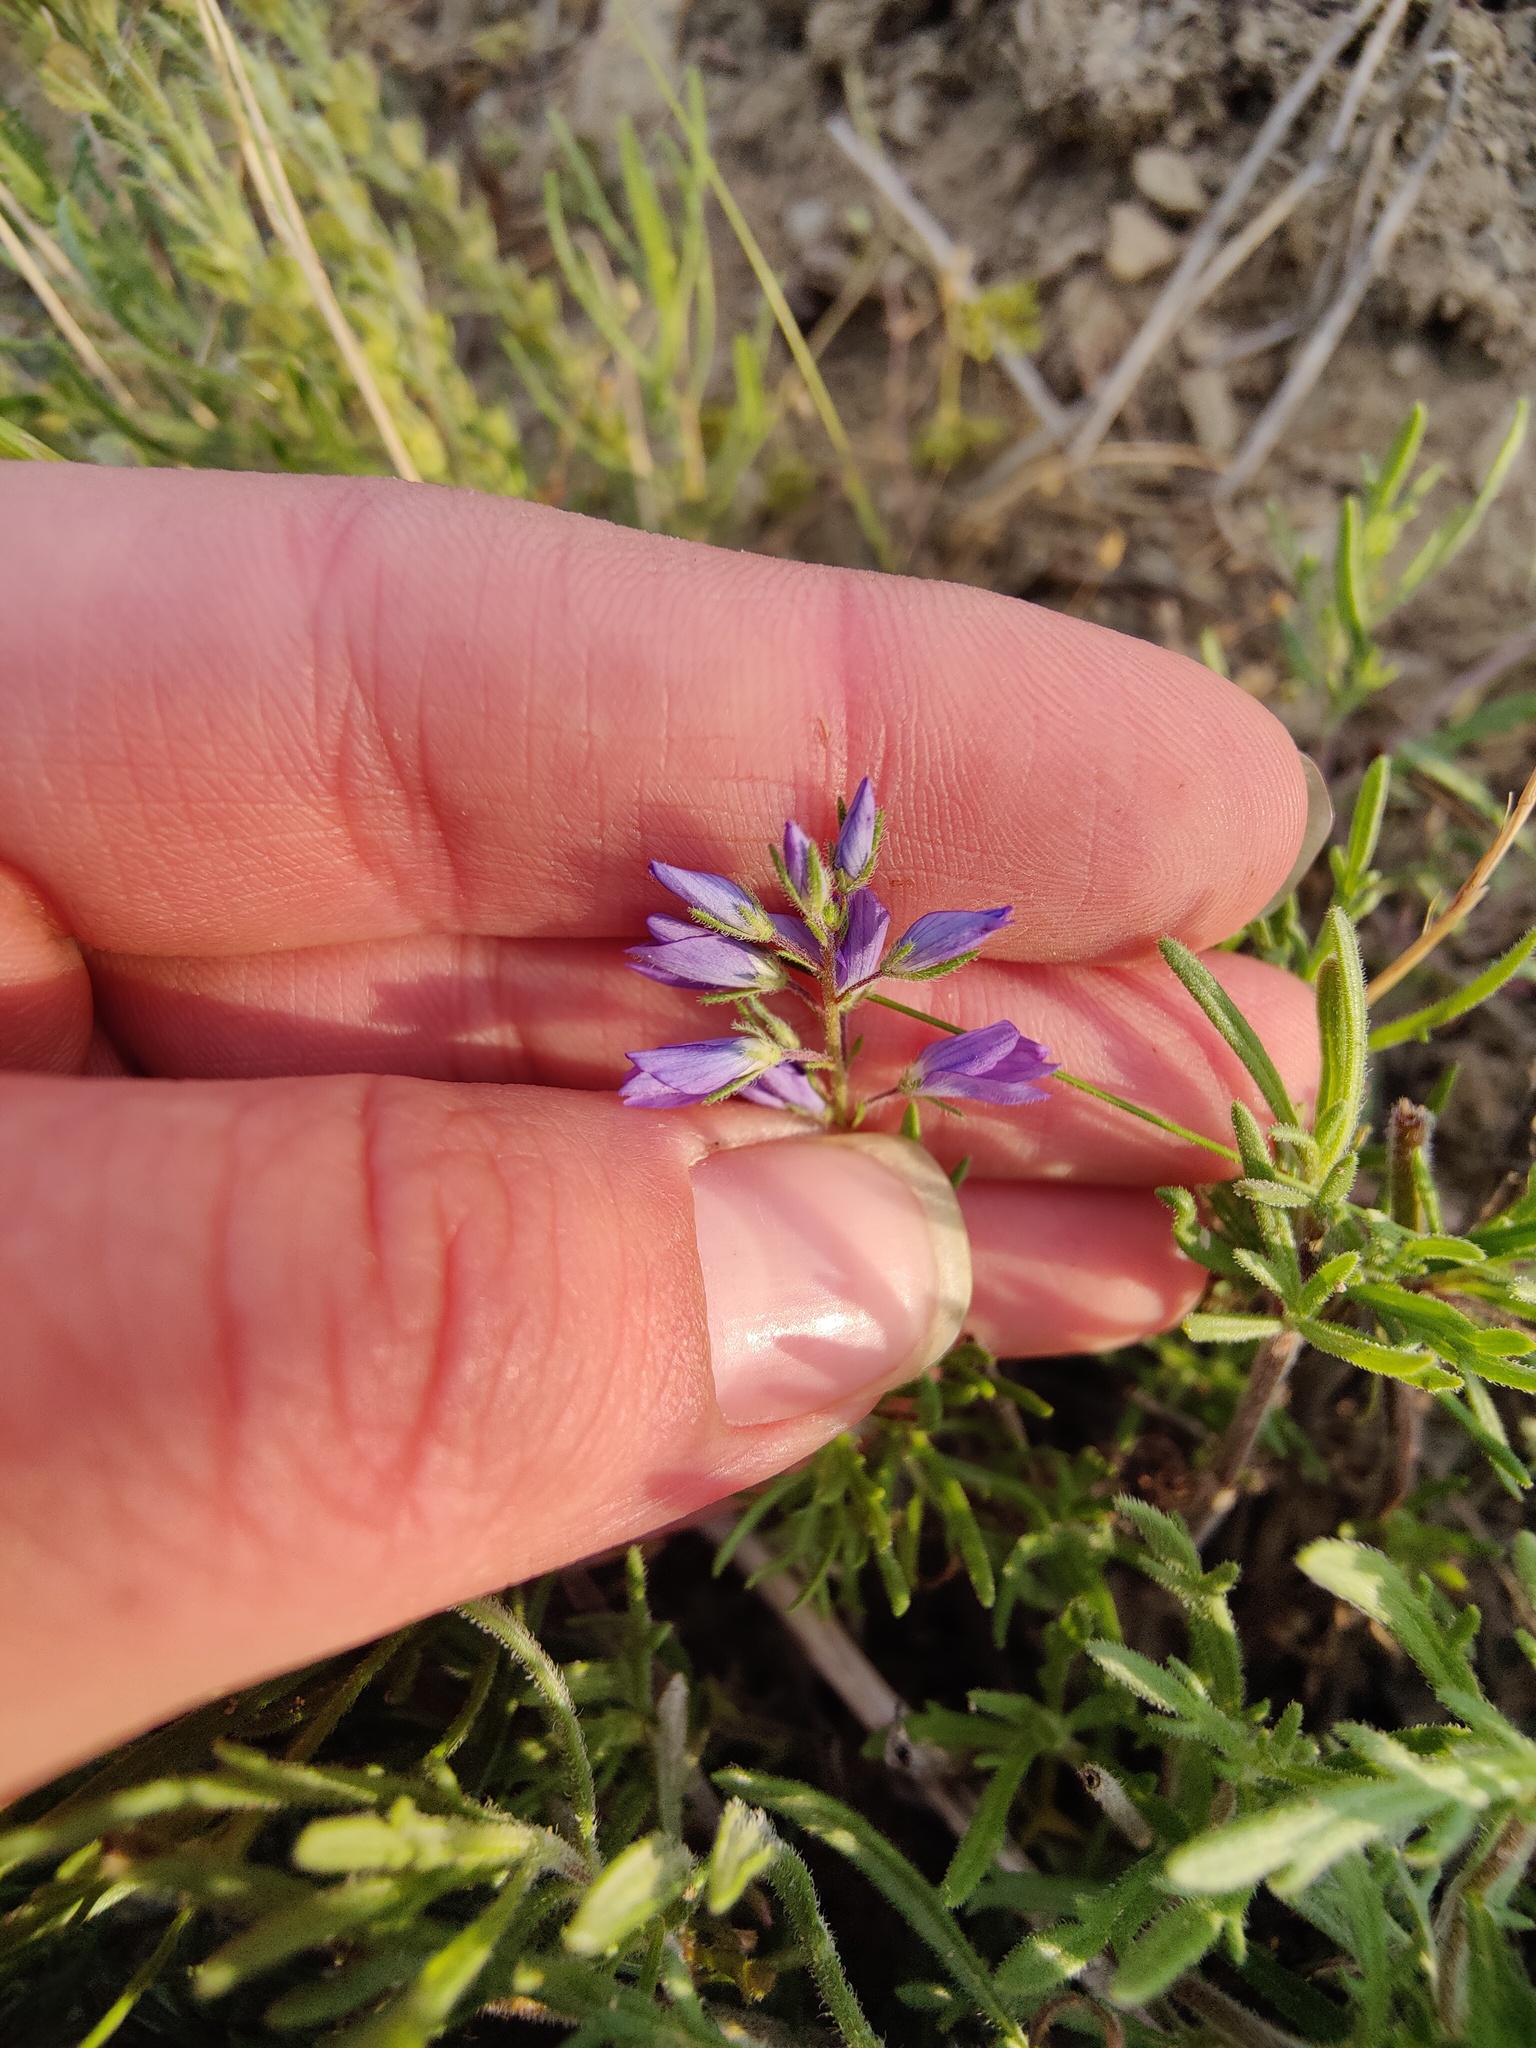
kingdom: Plantae
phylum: Tracheophyta
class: Magnoliopsida
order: Lamiales
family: Plantaginaceae
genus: Veronica
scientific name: Veronica capsellicarpa
